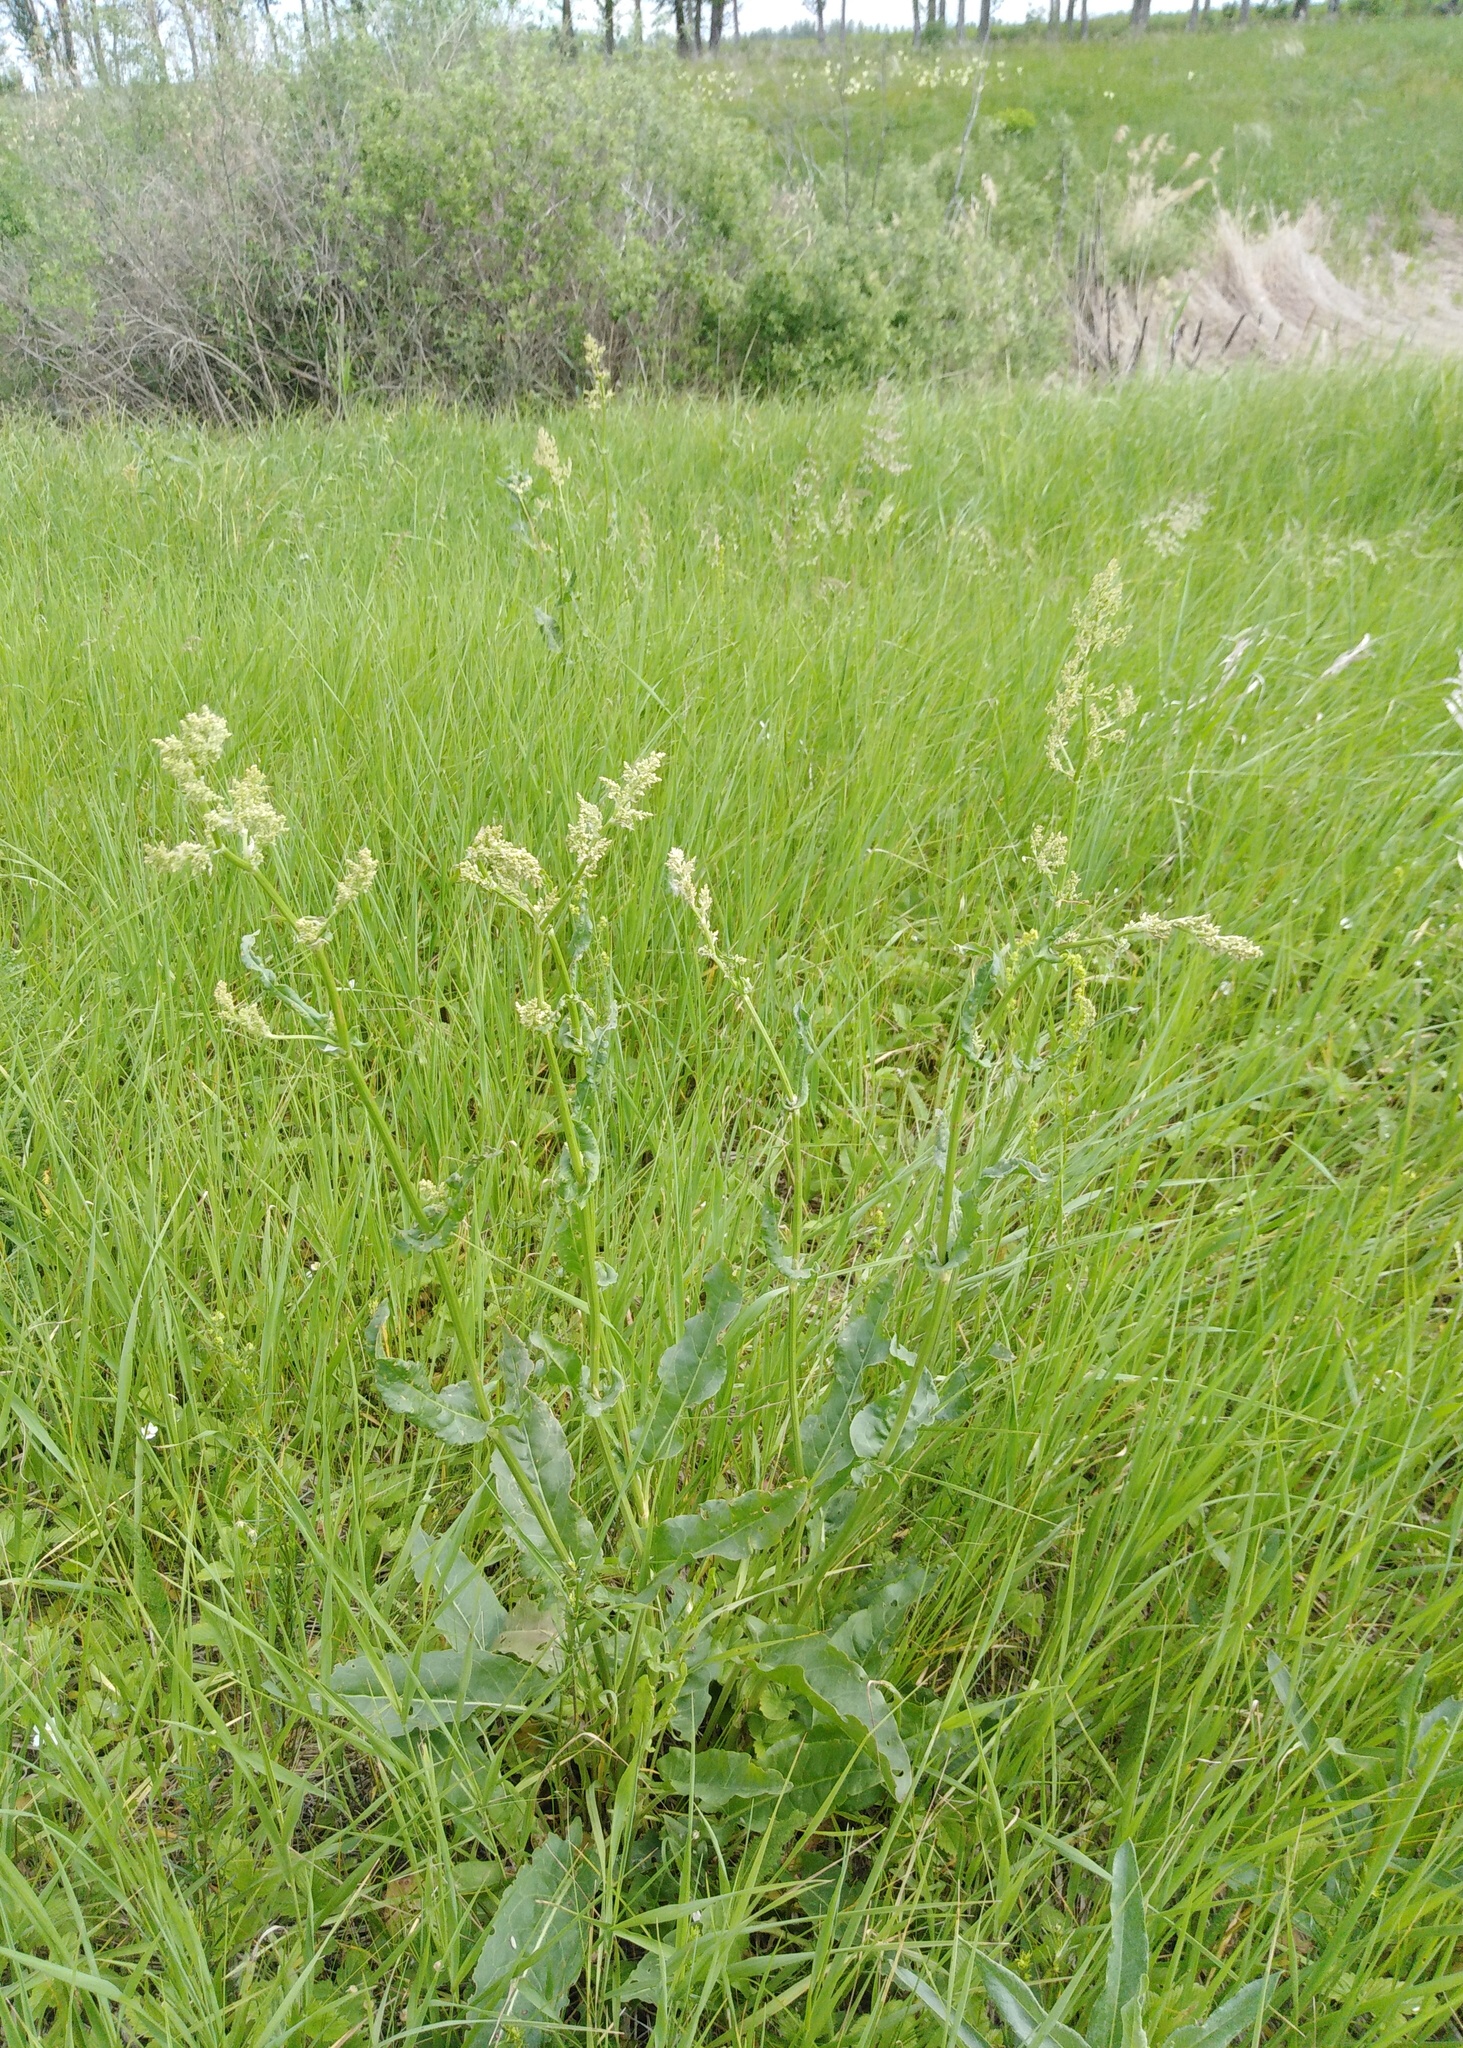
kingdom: Plantae
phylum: Tracheophyta
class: Magnoliopsida
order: Caryophyllales
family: Polygonaceae
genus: Rumex
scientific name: Rumex thyrsiflorus
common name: Garden sorrel
